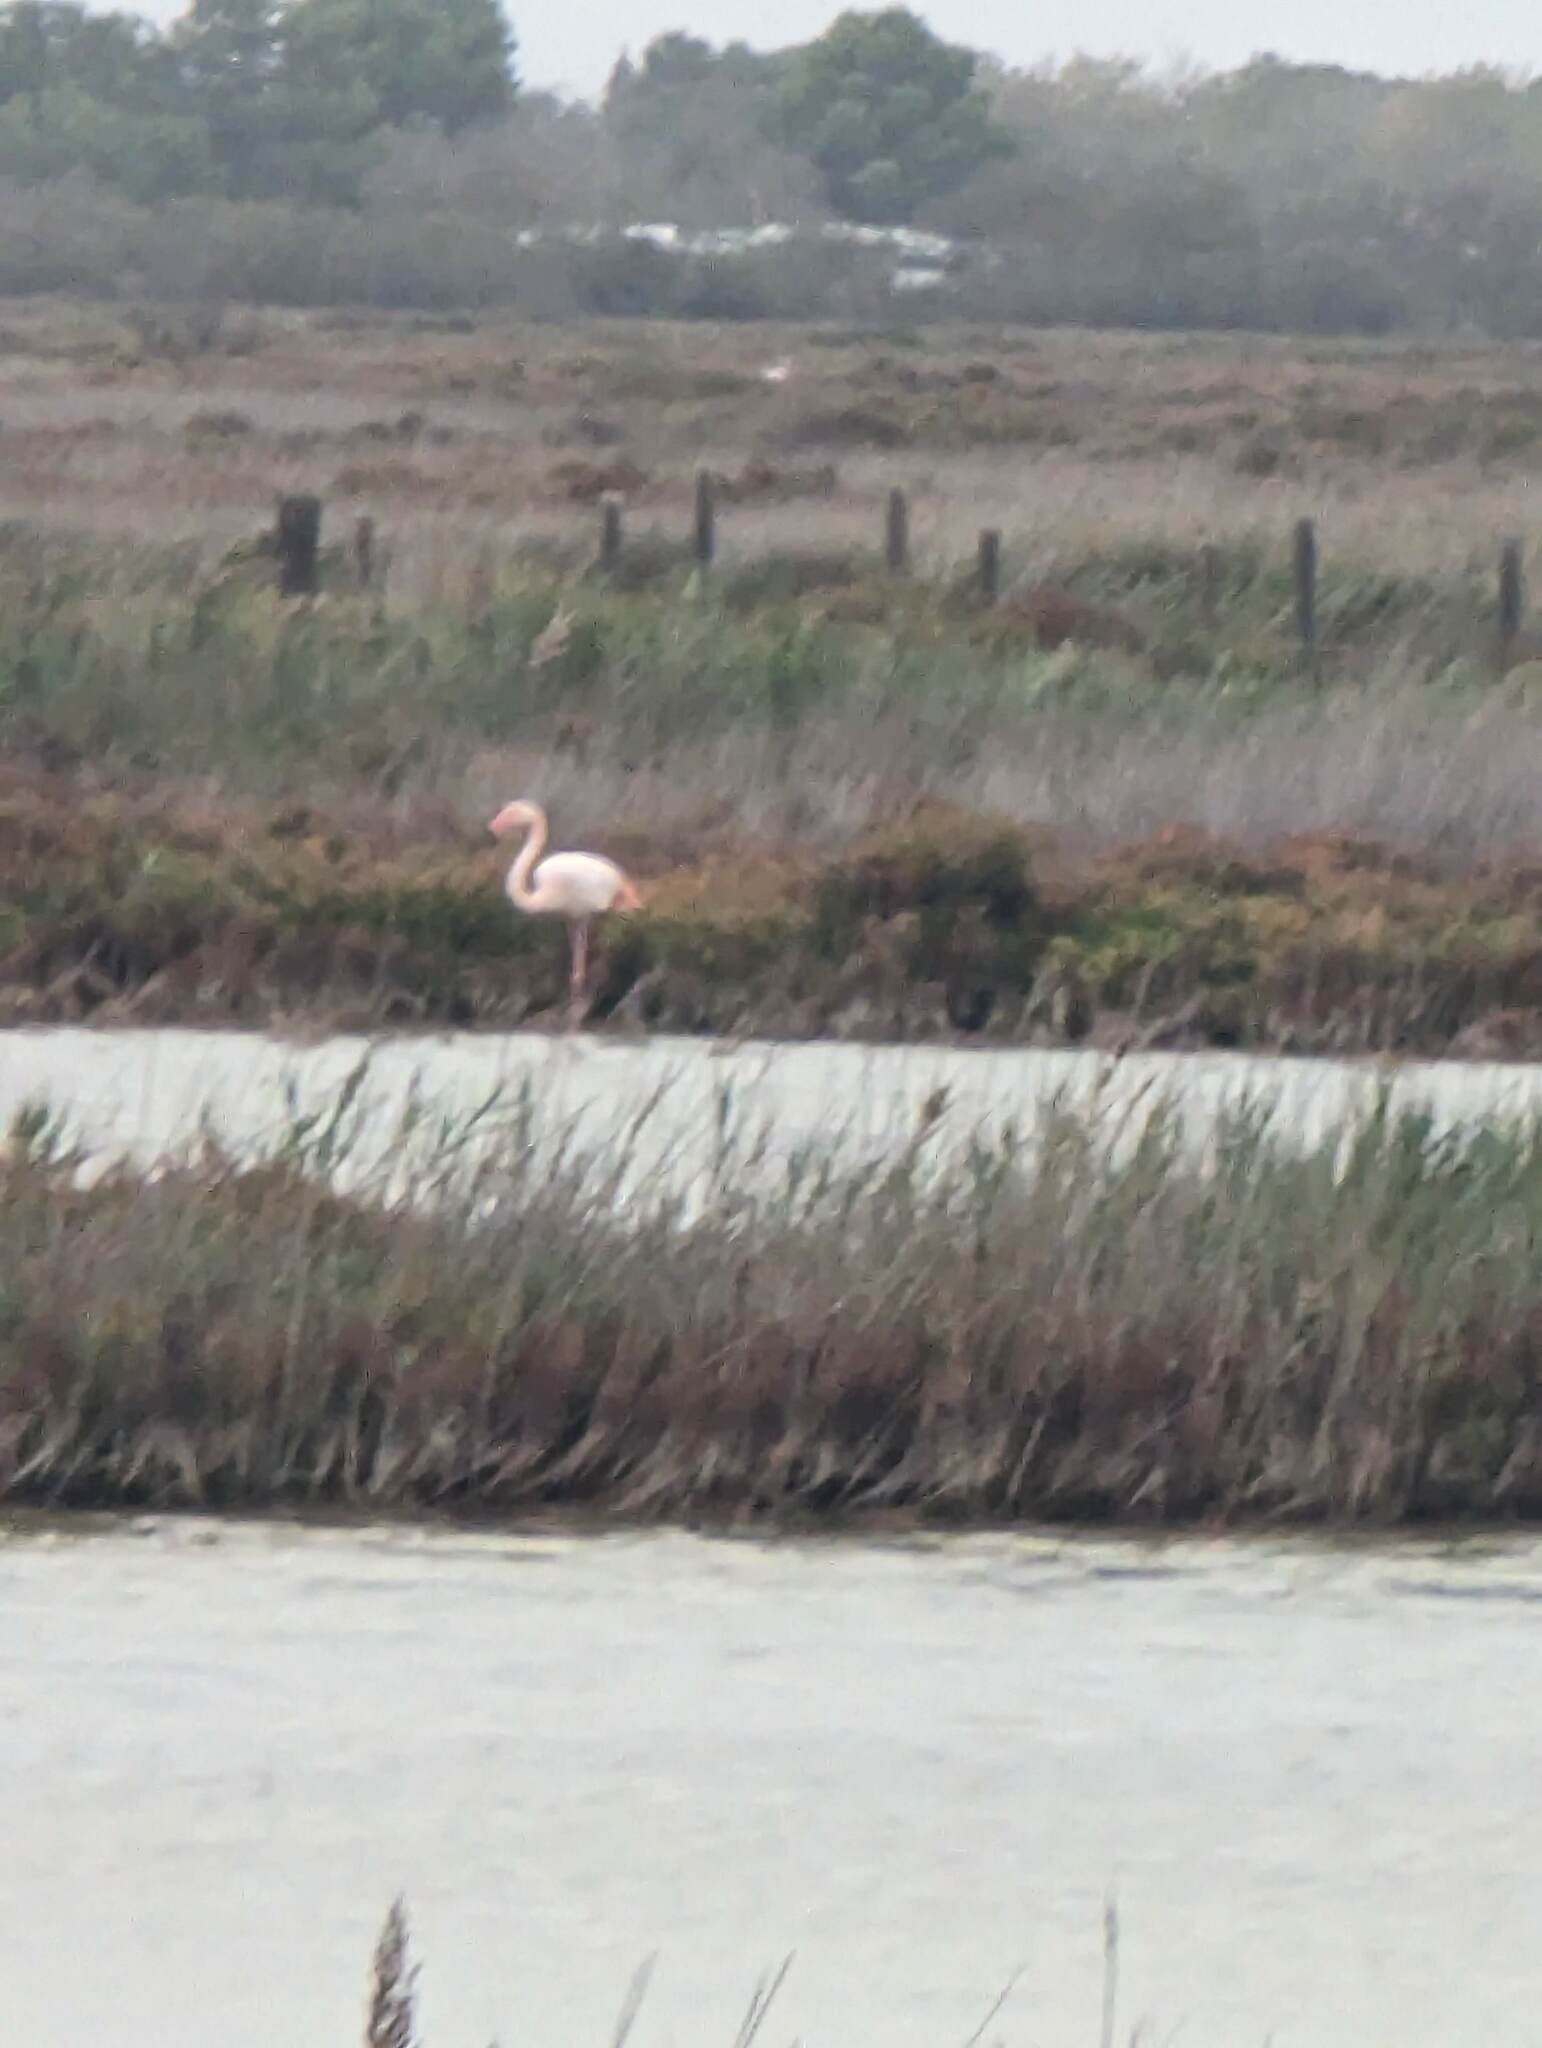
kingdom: Animalia
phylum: Chordata
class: Aves
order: Phoenicopteriformes
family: Phoenicopteridae
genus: Phoenicopterus
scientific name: Phoenicopterus roseus
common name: Greater flamingo
